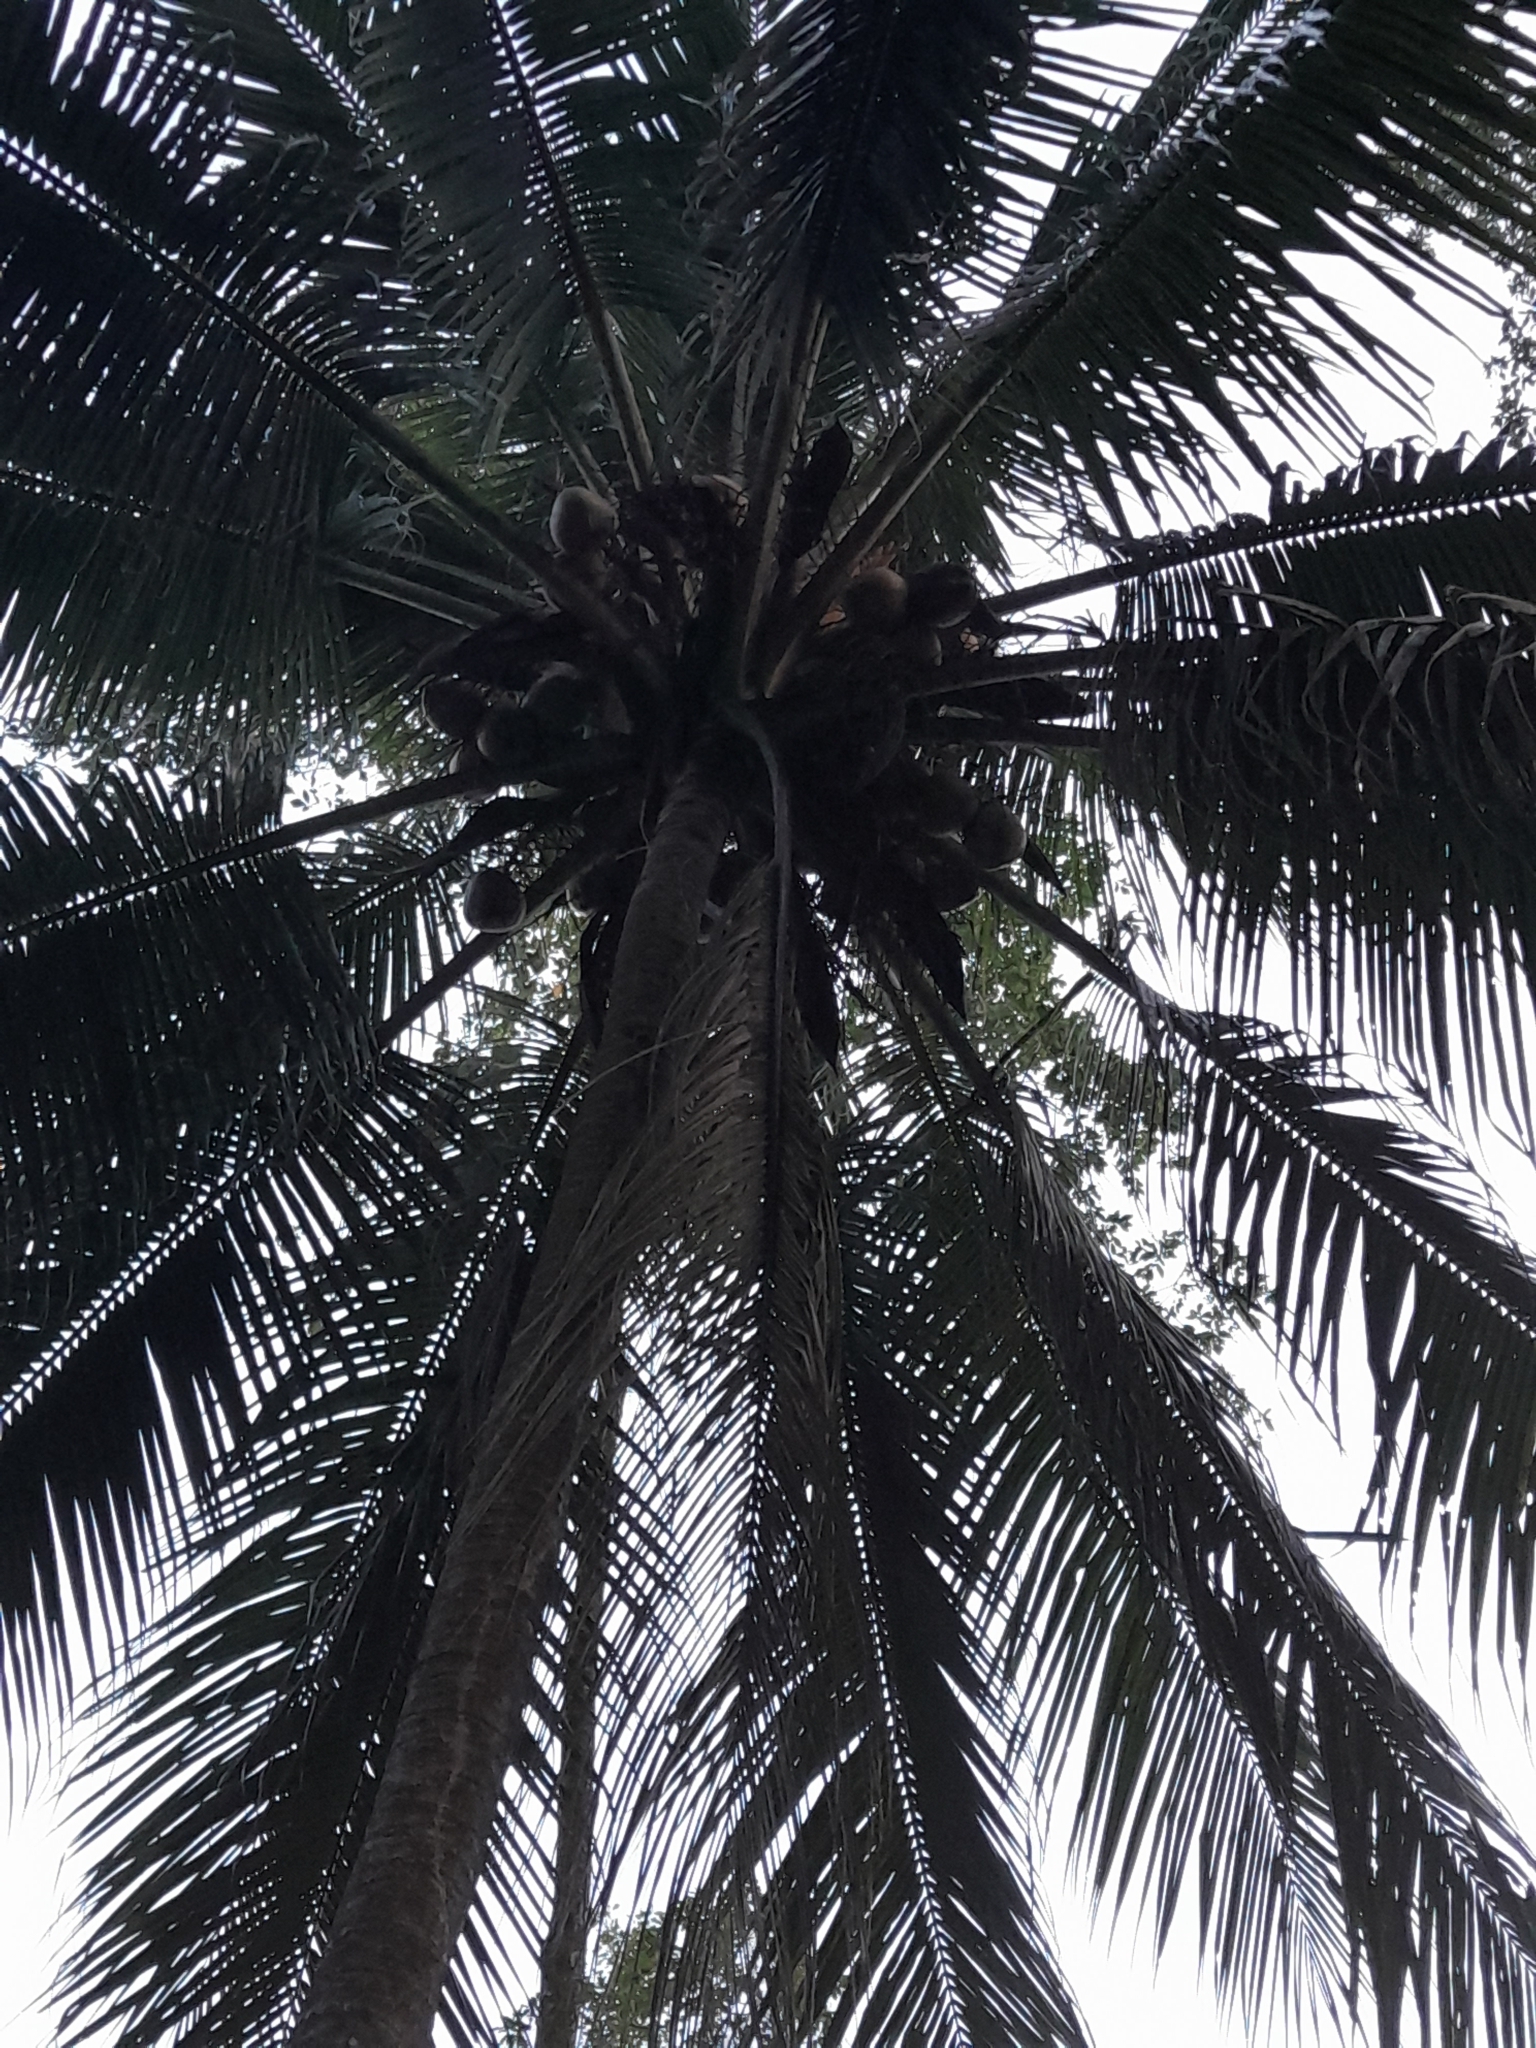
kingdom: Plantae
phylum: Tracheophyta
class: Liliopsida
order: Arecales
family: Arecaceae
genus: Cocos
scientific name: Cocos nucifera
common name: Coconut palm
